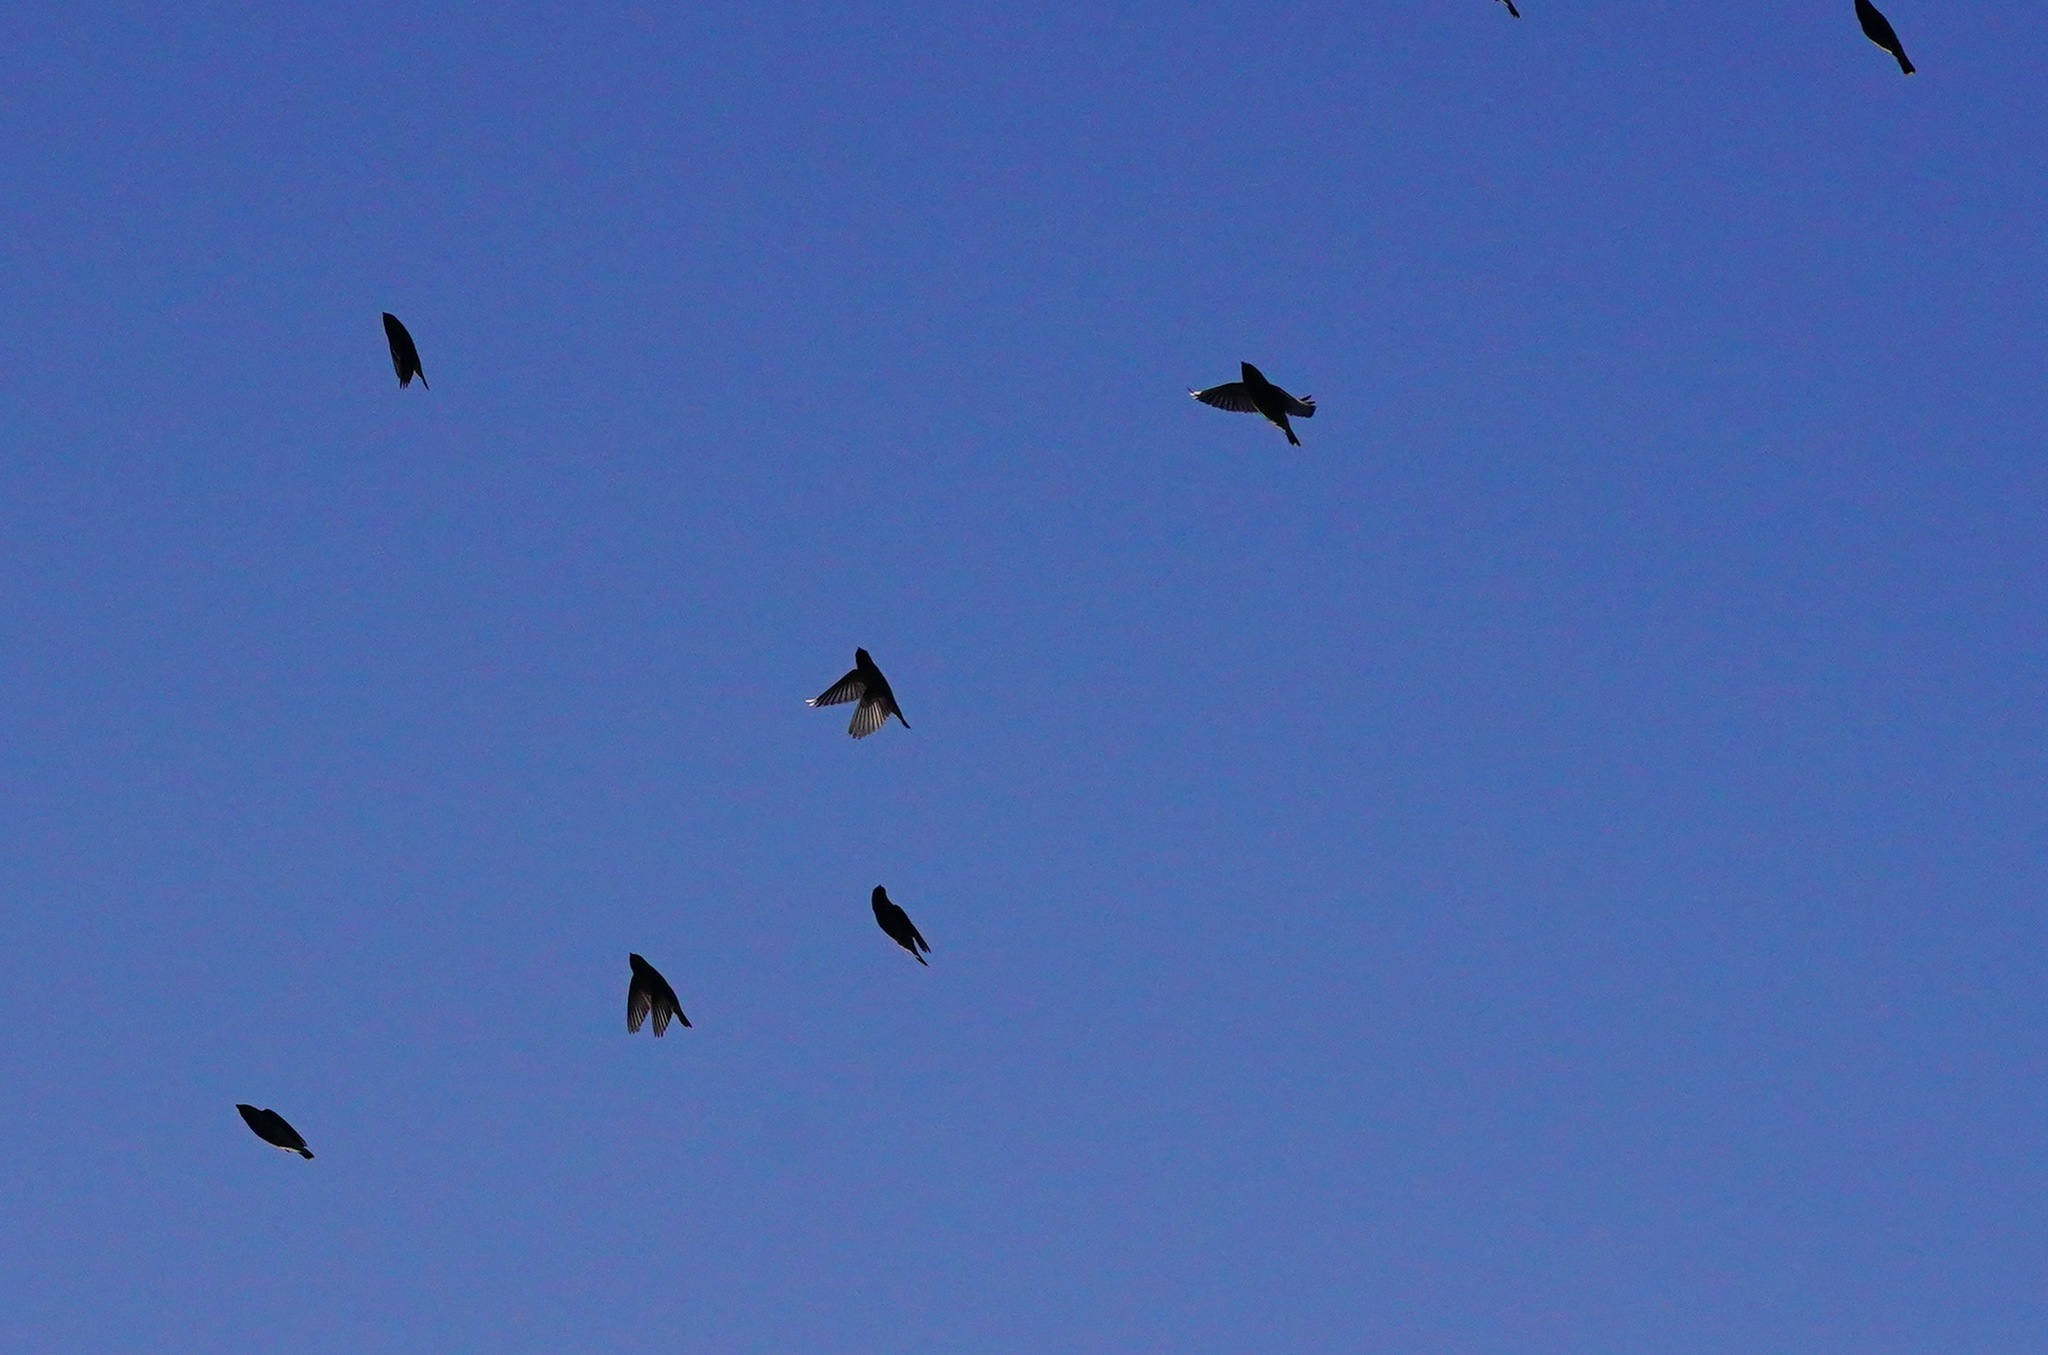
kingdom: Animalia
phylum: Chordata
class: Aves
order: Passeriformes
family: Bombycillidae
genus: Bombycilla
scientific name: Bombycilla cedrorum
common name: Cedar waxwing
